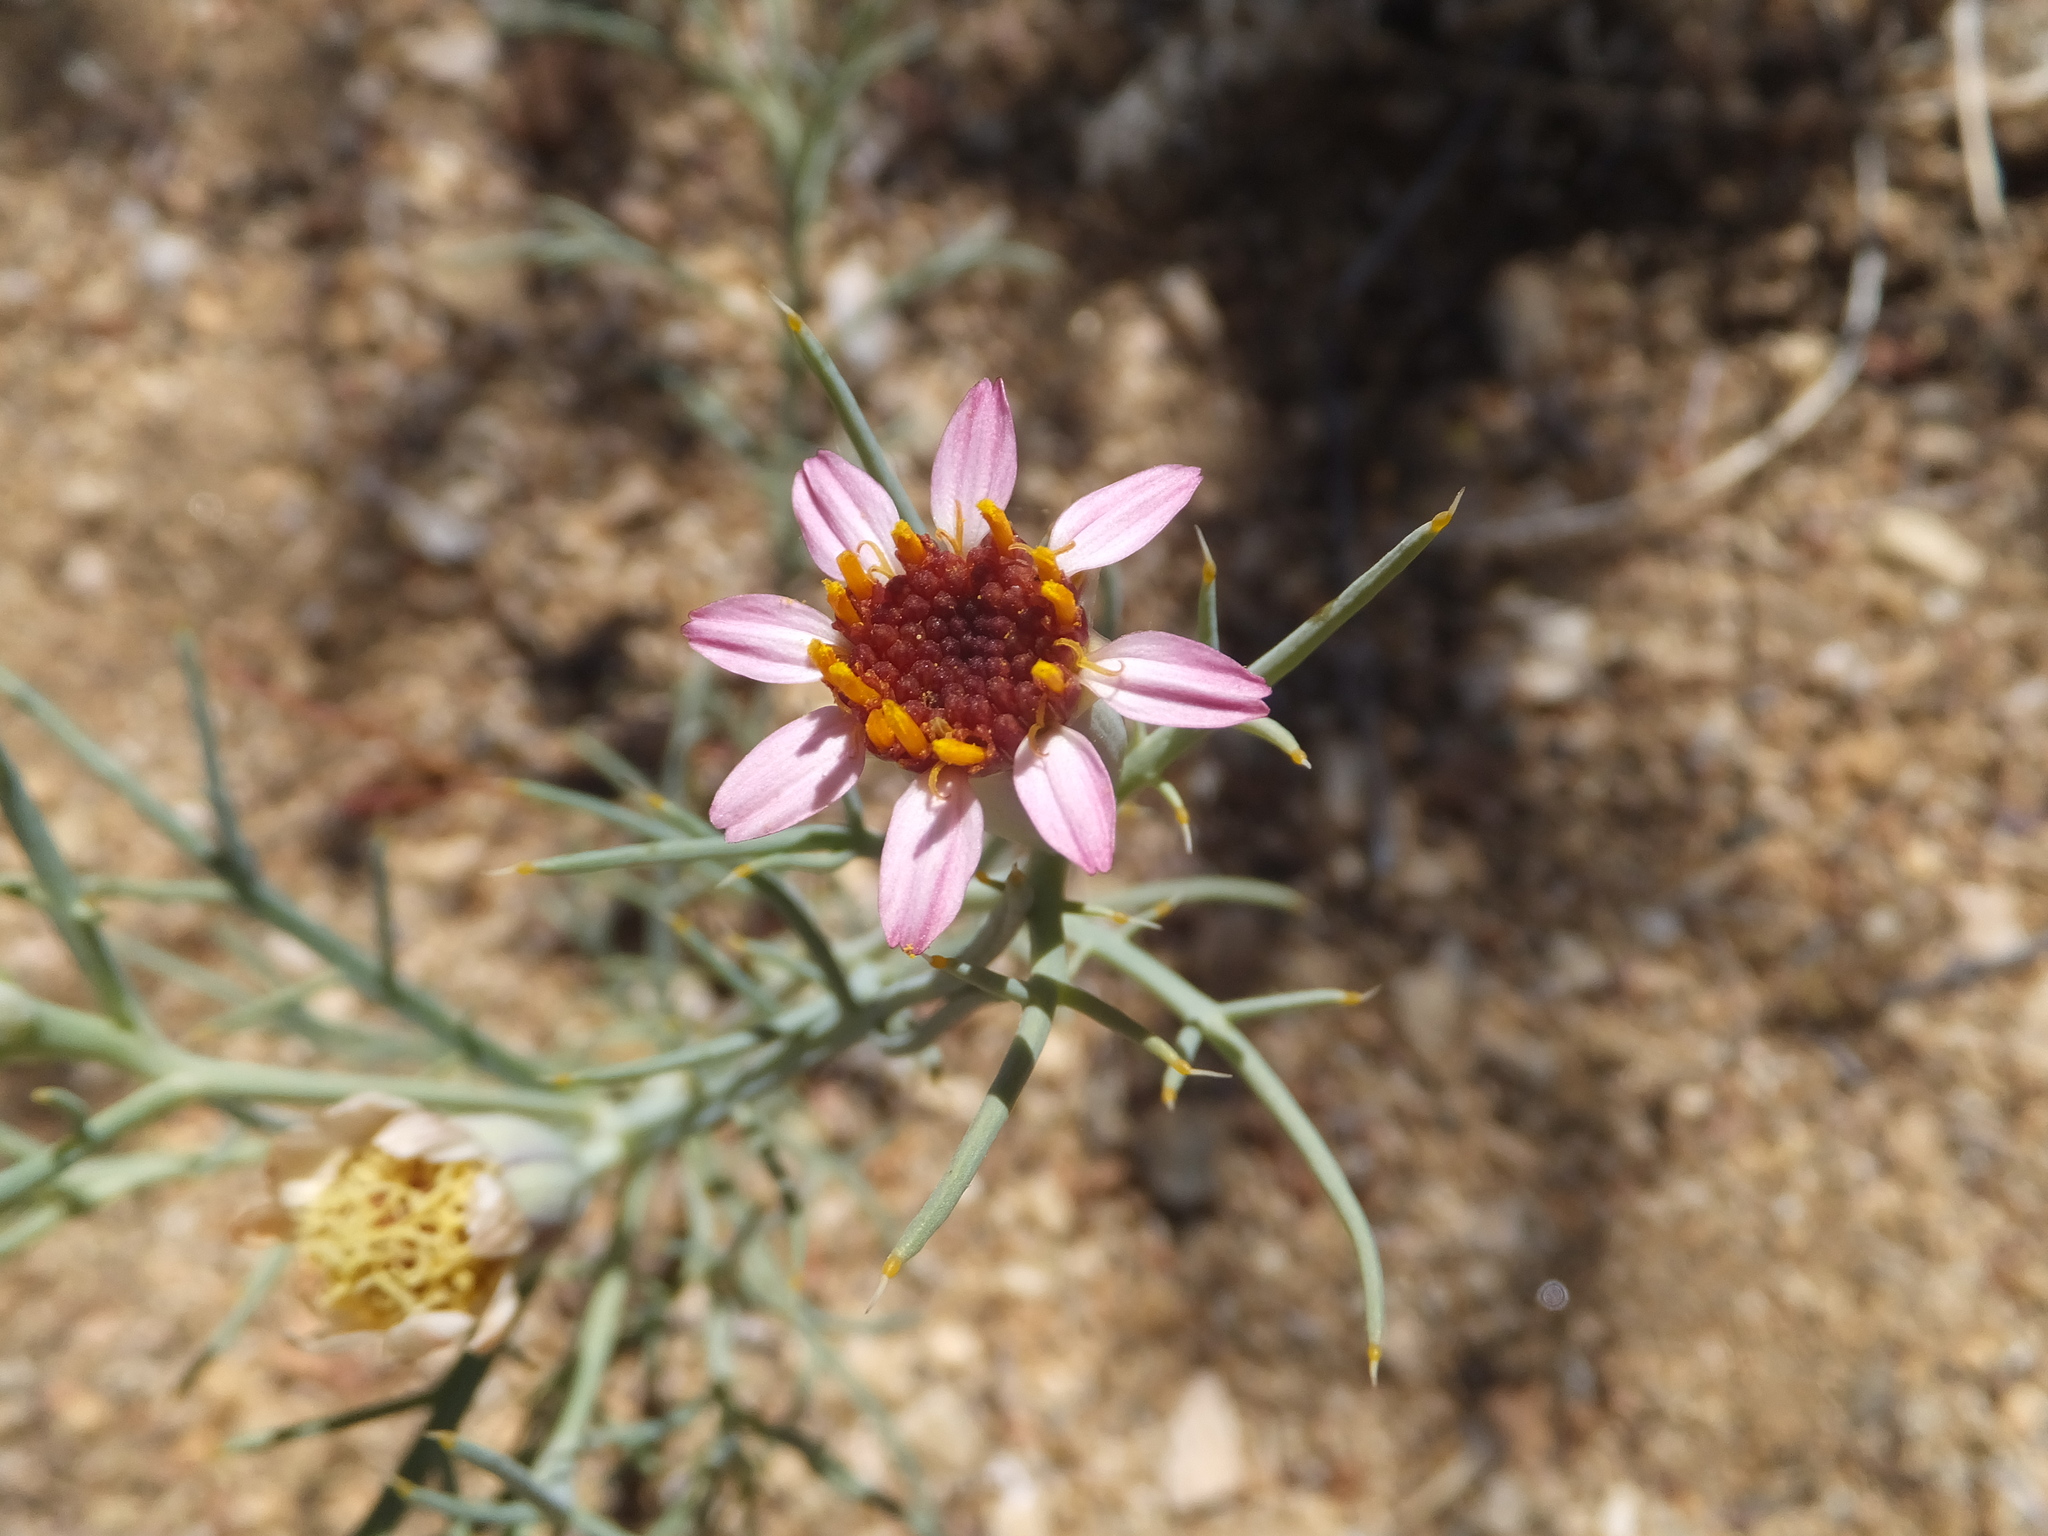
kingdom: Plantae
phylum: Tracheophyta
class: Magnoliopsida
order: Asterales
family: Asteraceae
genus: Nicolletia
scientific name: Nicolletia occidentalis
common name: Hole-in-the-sand-plant
